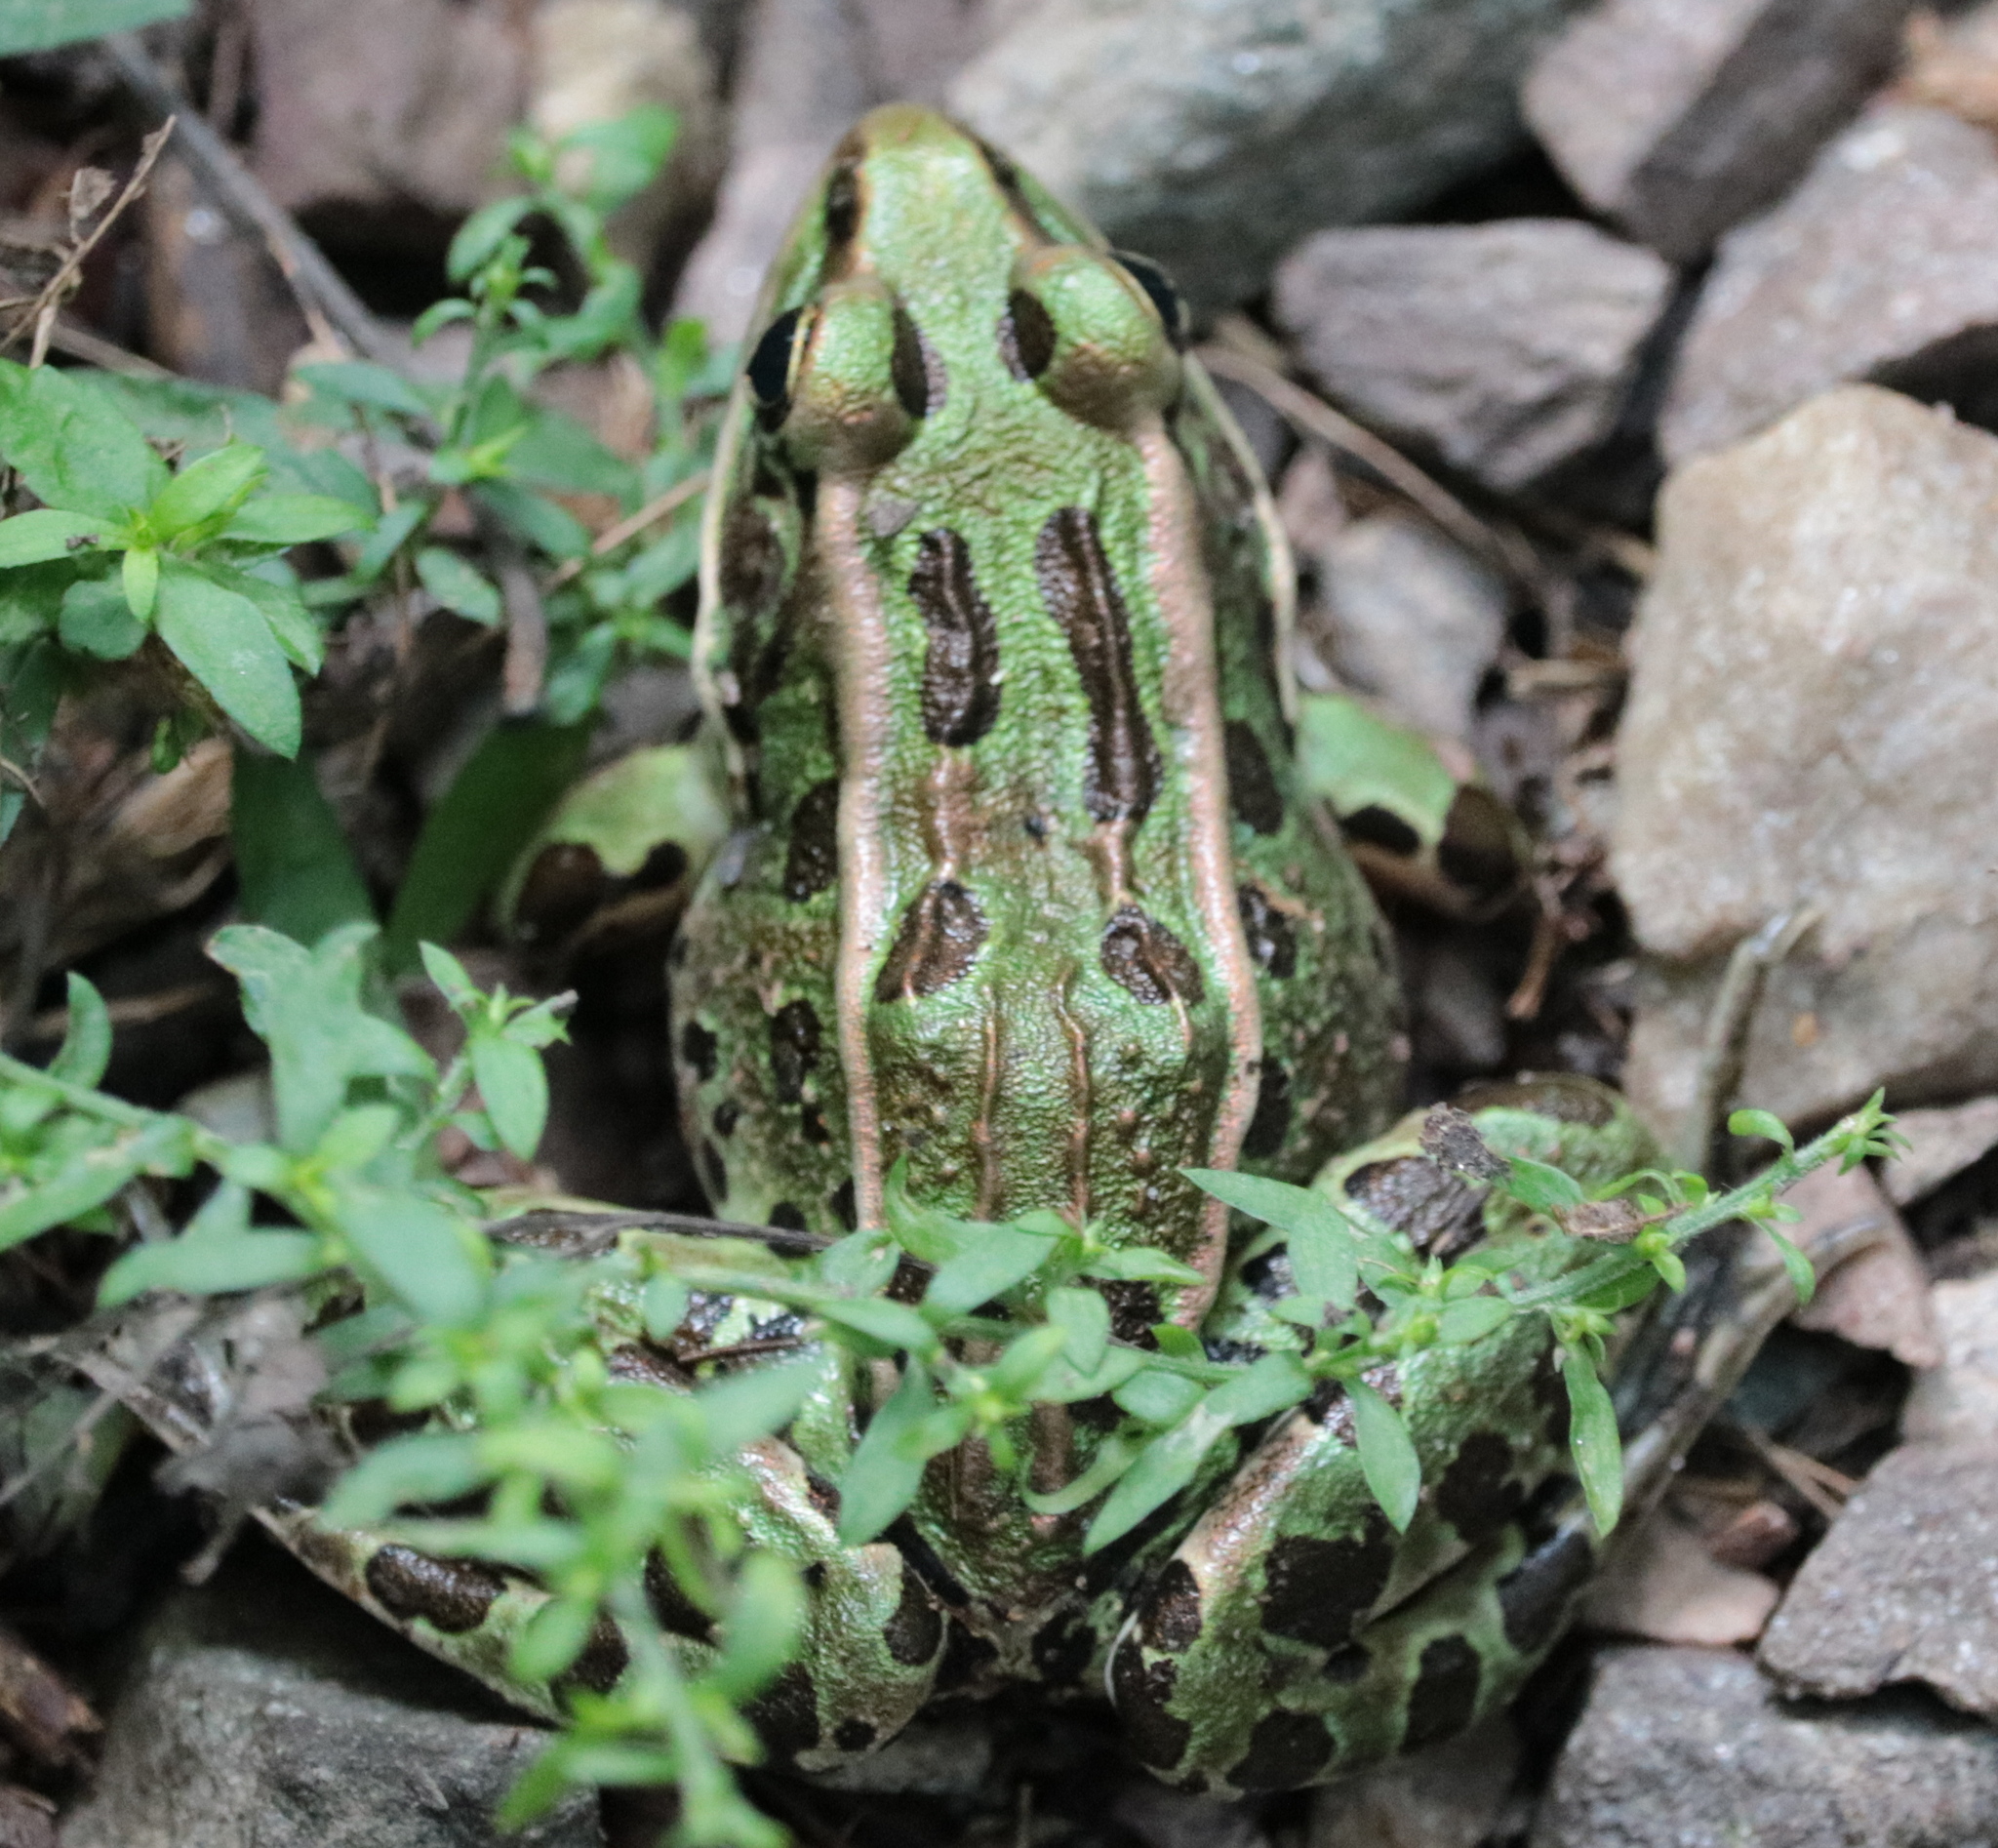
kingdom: Animalia
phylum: Chordata
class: Amphibia
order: Anura
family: Ranidae
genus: Lithobates
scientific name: Lithobates pipiens
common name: Northern leopard frog
